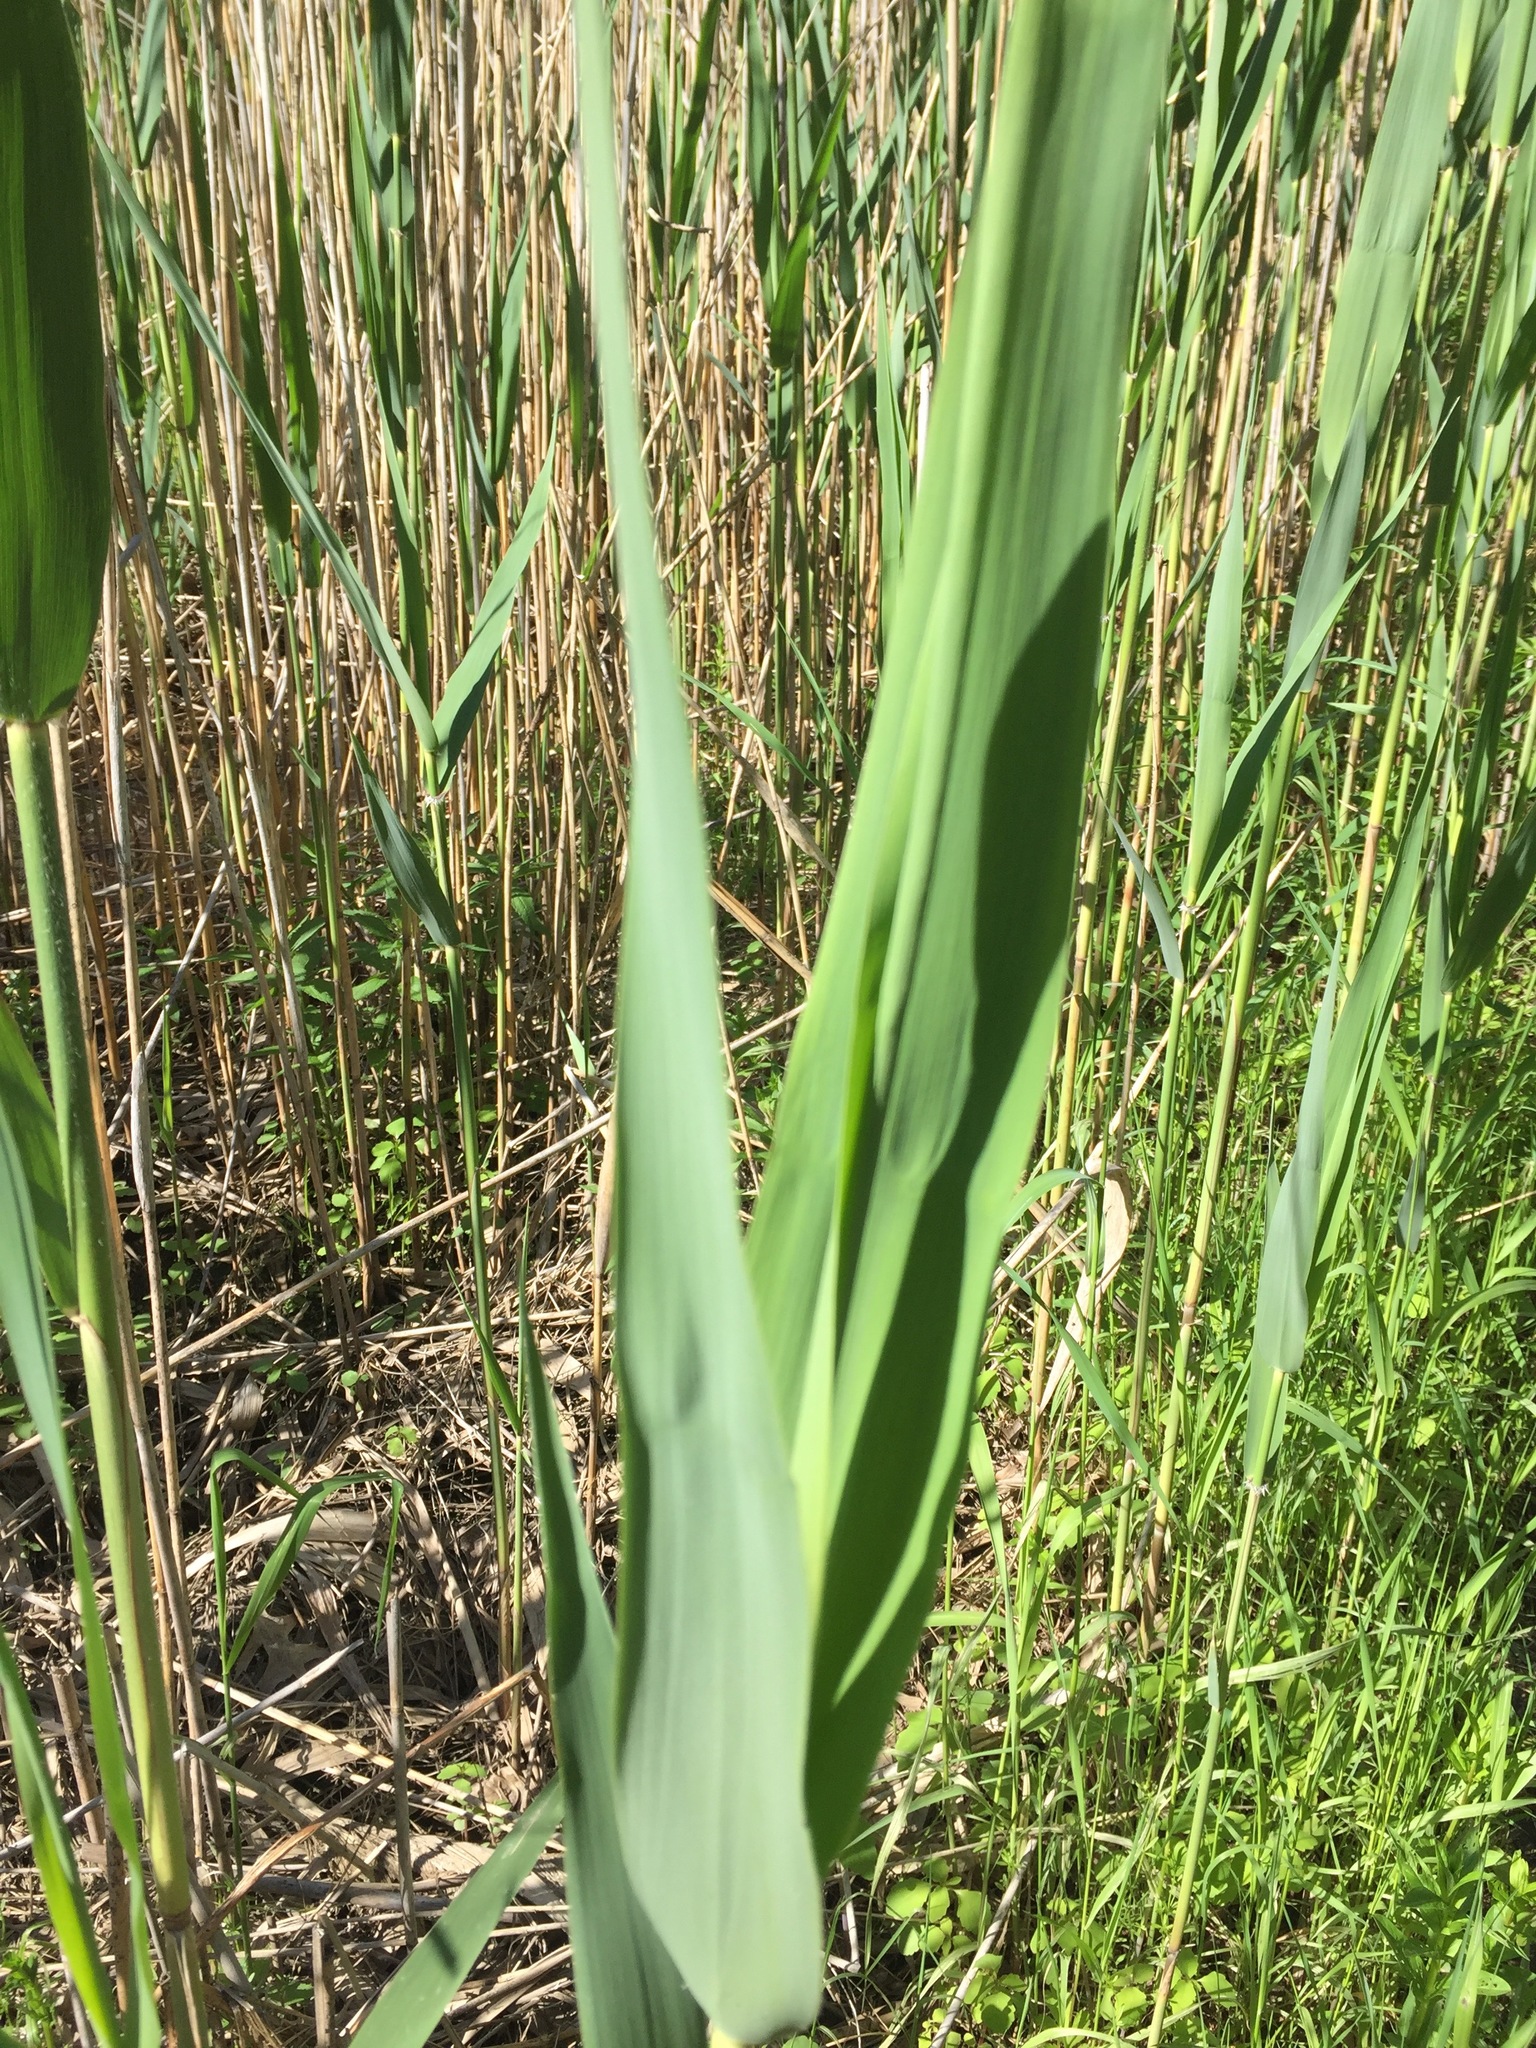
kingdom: Plantae
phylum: Tracheophyta
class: Liliopsida
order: Poales
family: Poaceae
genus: Phragmites
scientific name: Phragmites australis
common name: Common reed
